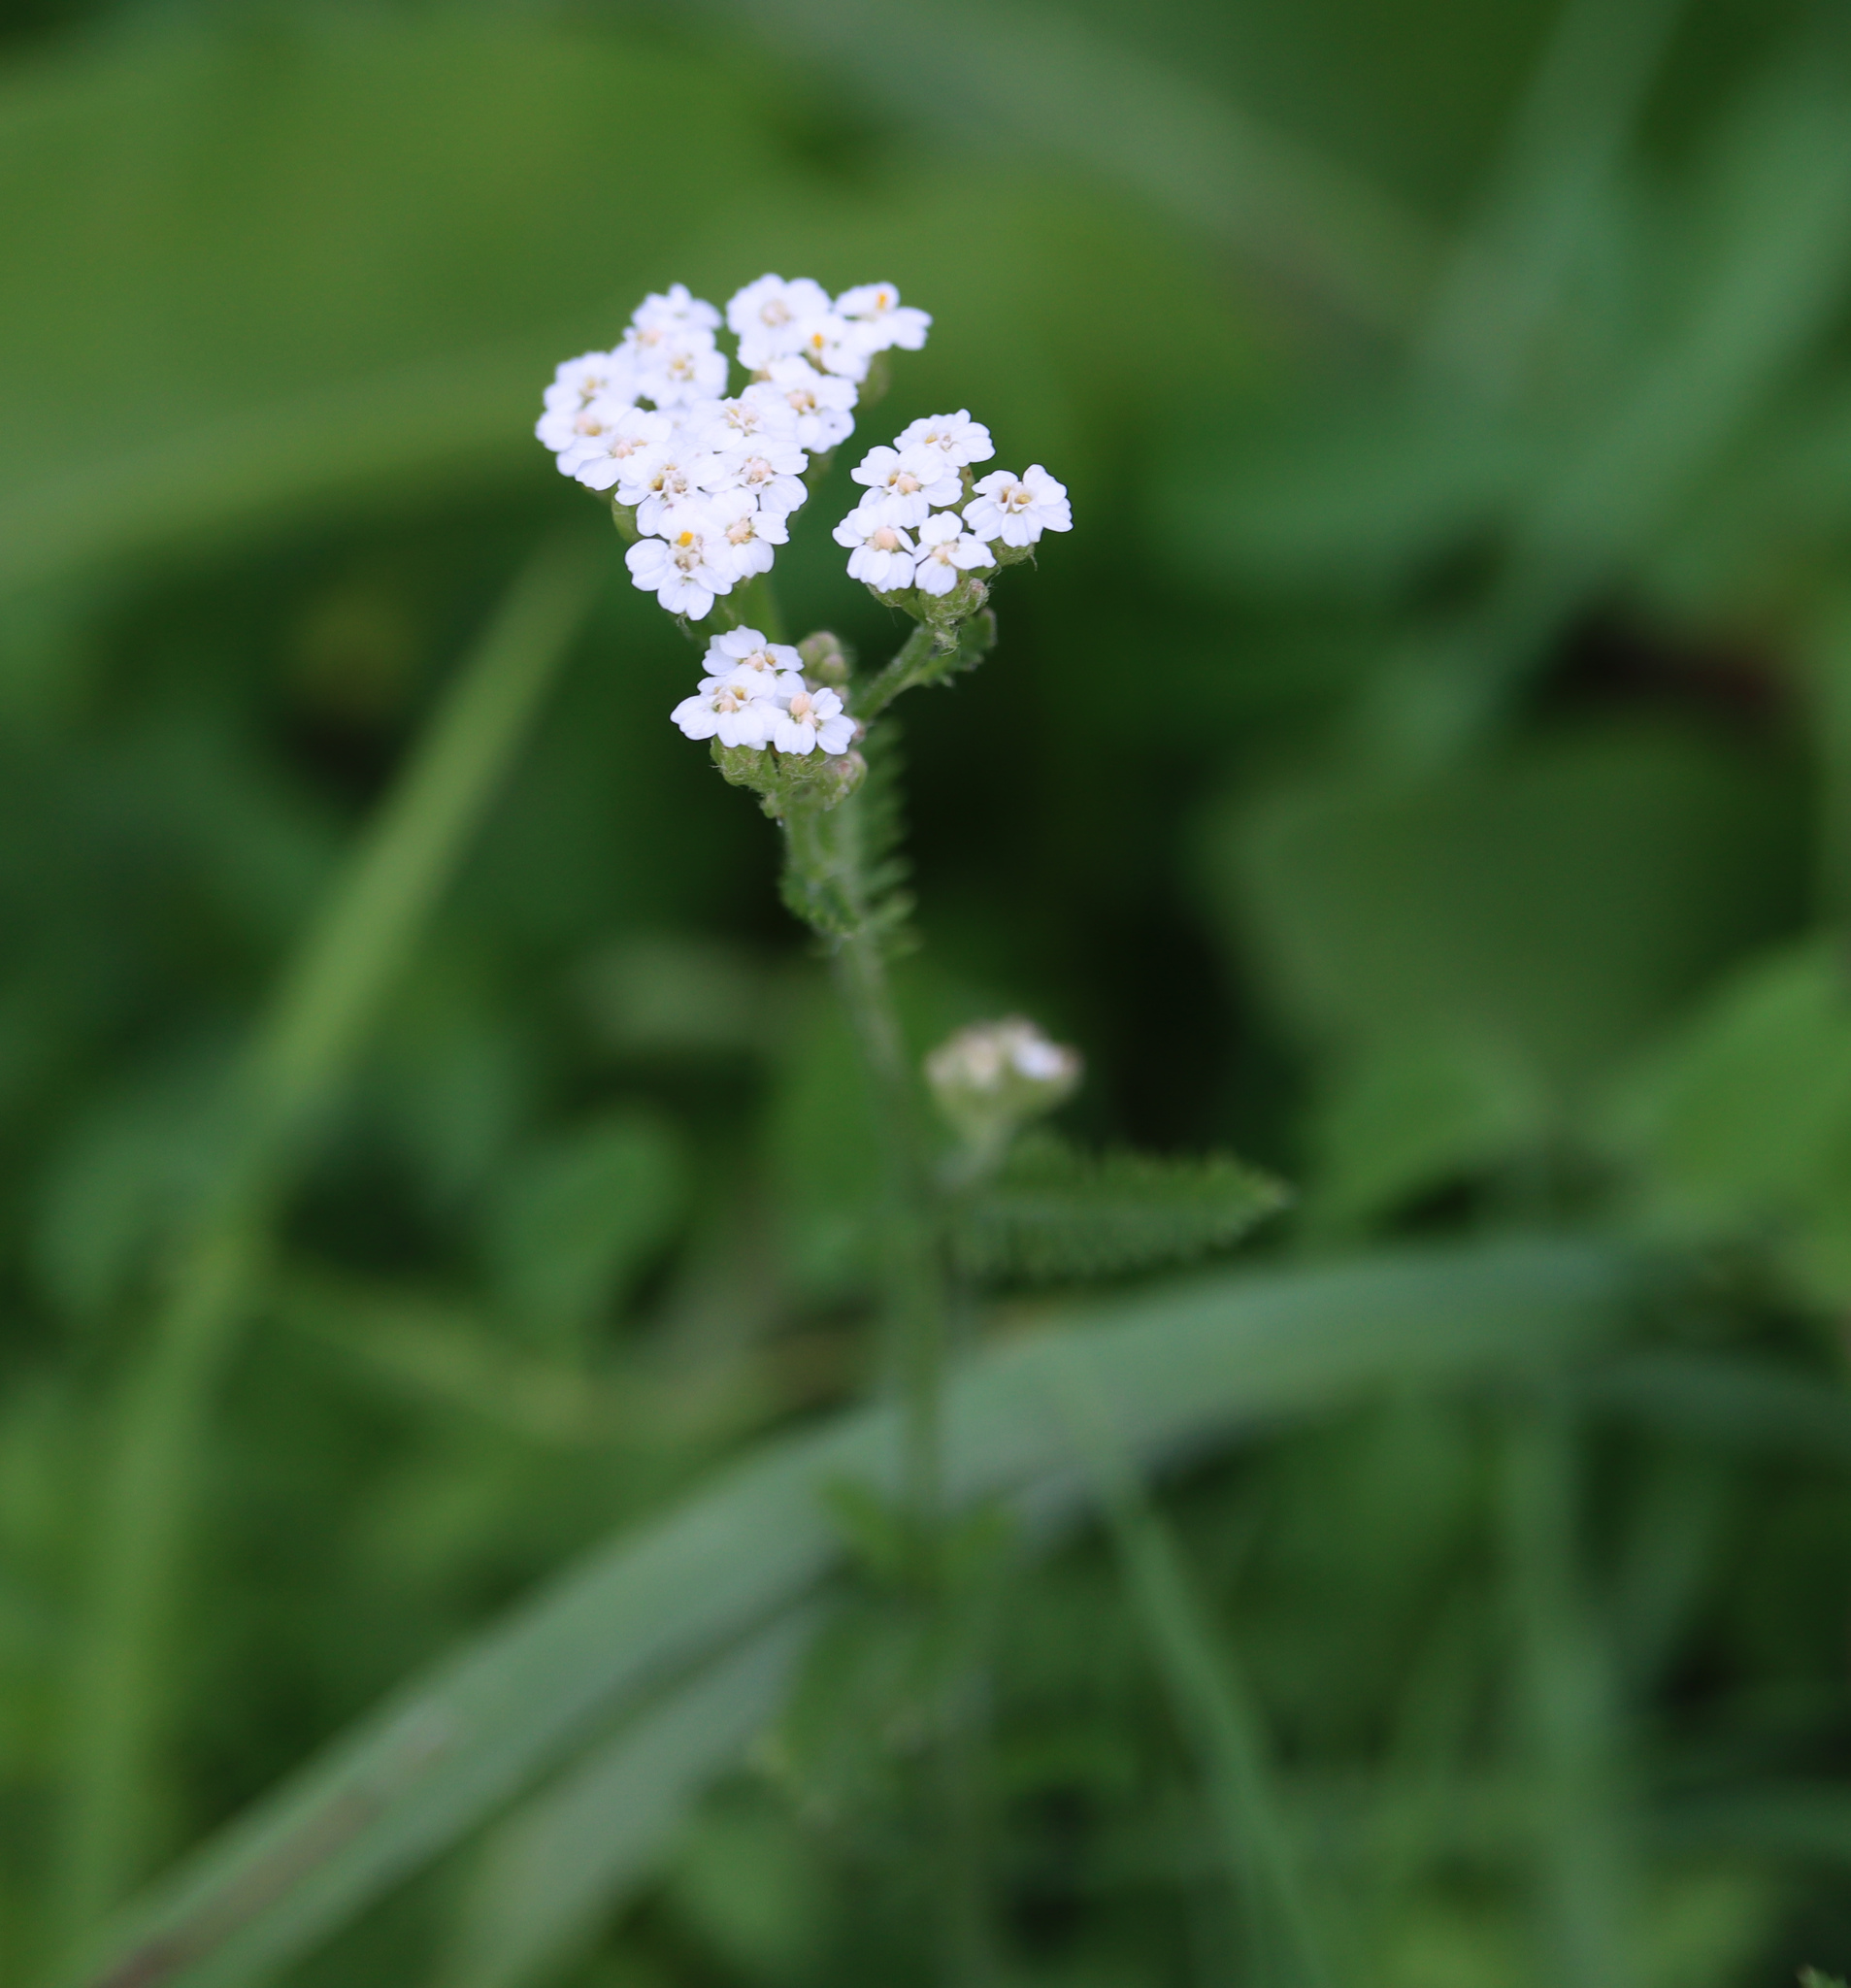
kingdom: Plantae
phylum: Tracheophyta
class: Magnoliopsida
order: Asterales
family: Asteraceae
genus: Achillea
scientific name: Achillea millefolium
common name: Yarrow
